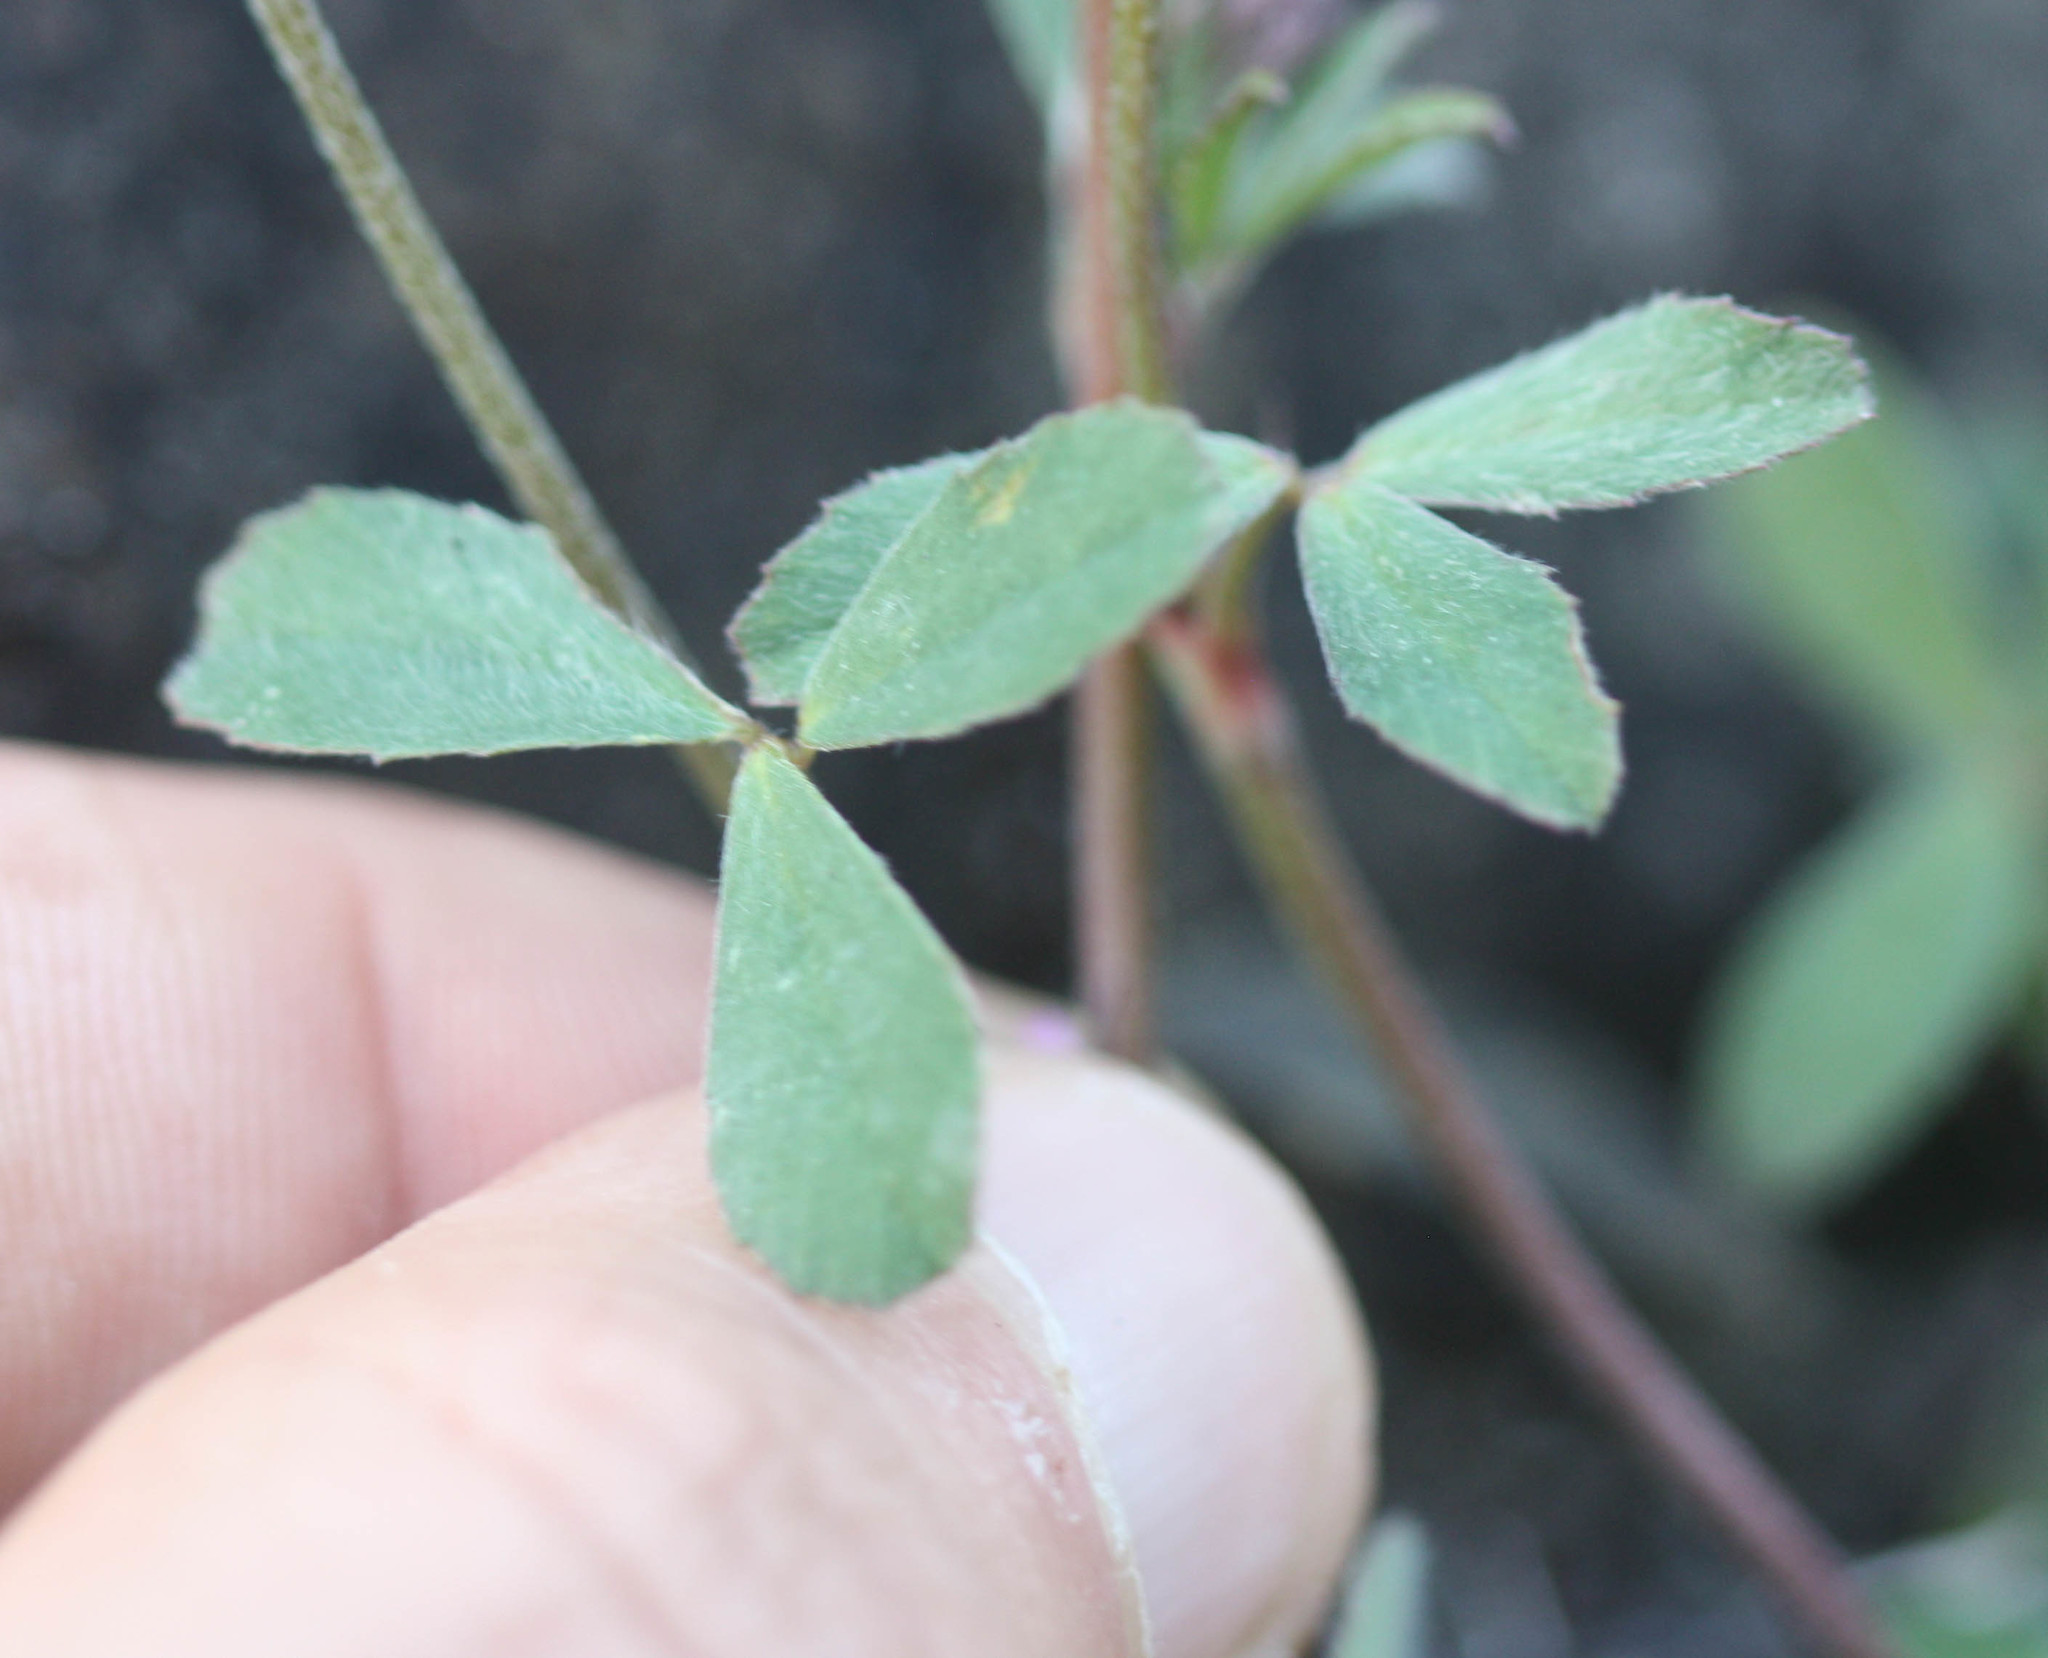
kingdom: Plantae
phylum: Tracheophyta
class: Magnoliopsida
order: Fabales
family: Fabaceae
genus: Trifolium
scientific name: Trifolium dichotomum
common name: Branched indian clover
